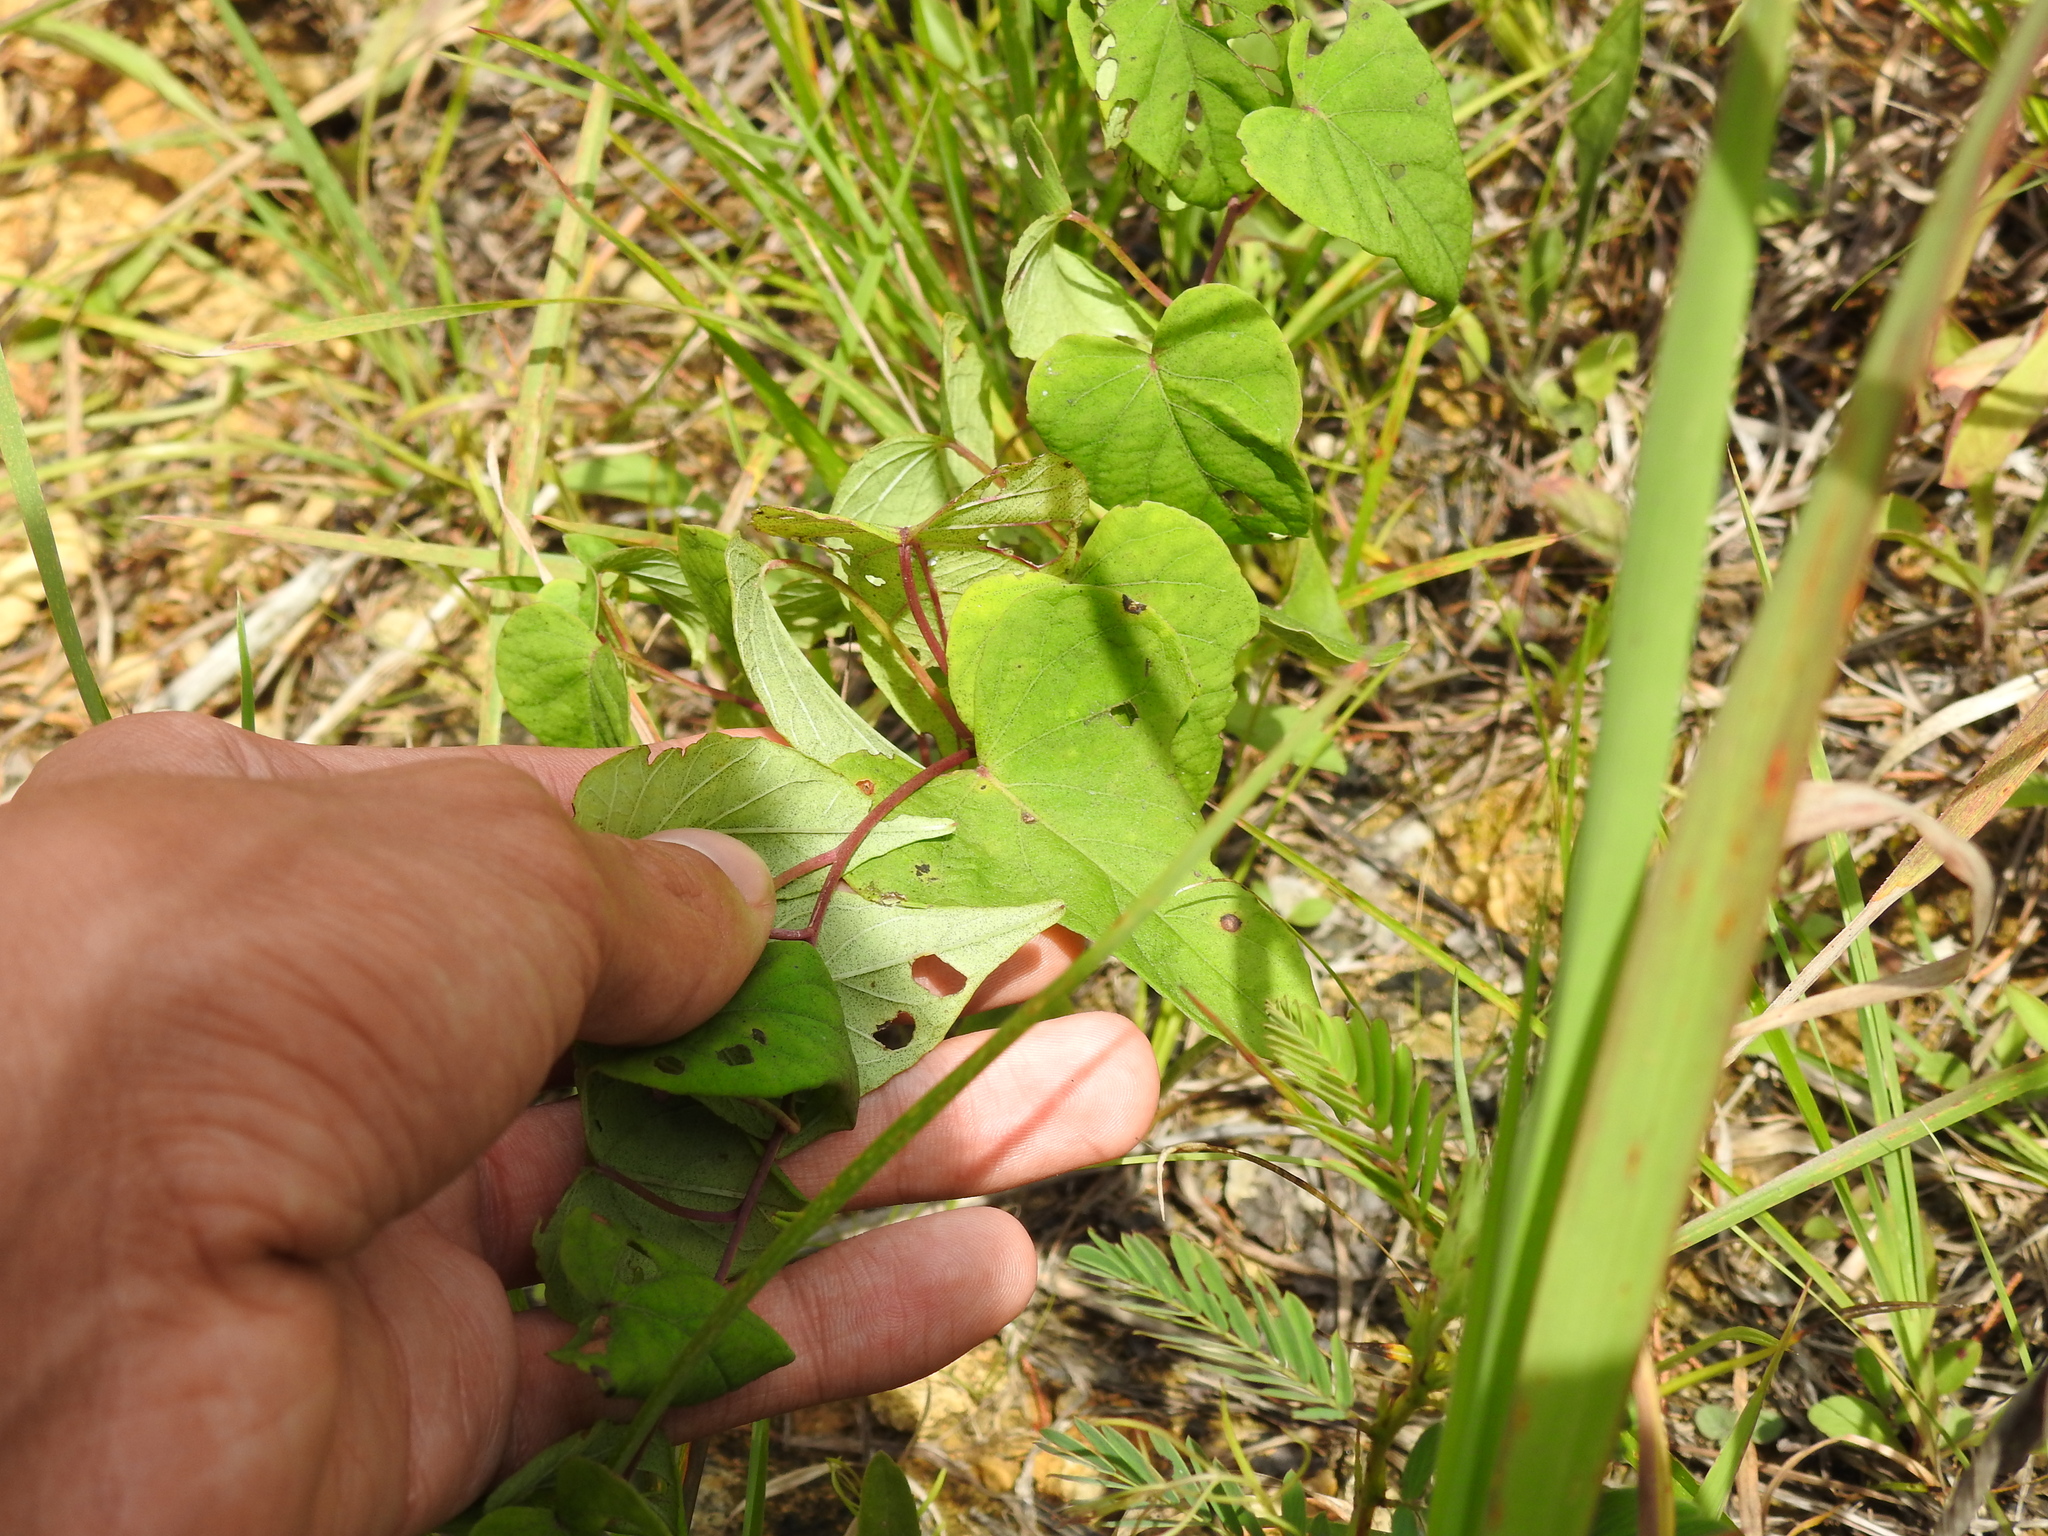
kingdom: Plantae
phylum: Tracheophyta
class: Magnoliopsida
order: Solanales
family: Convolvulaceae
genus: Ipomoea
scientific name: Ipomoea pandurata
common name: Man-of-the-earth
